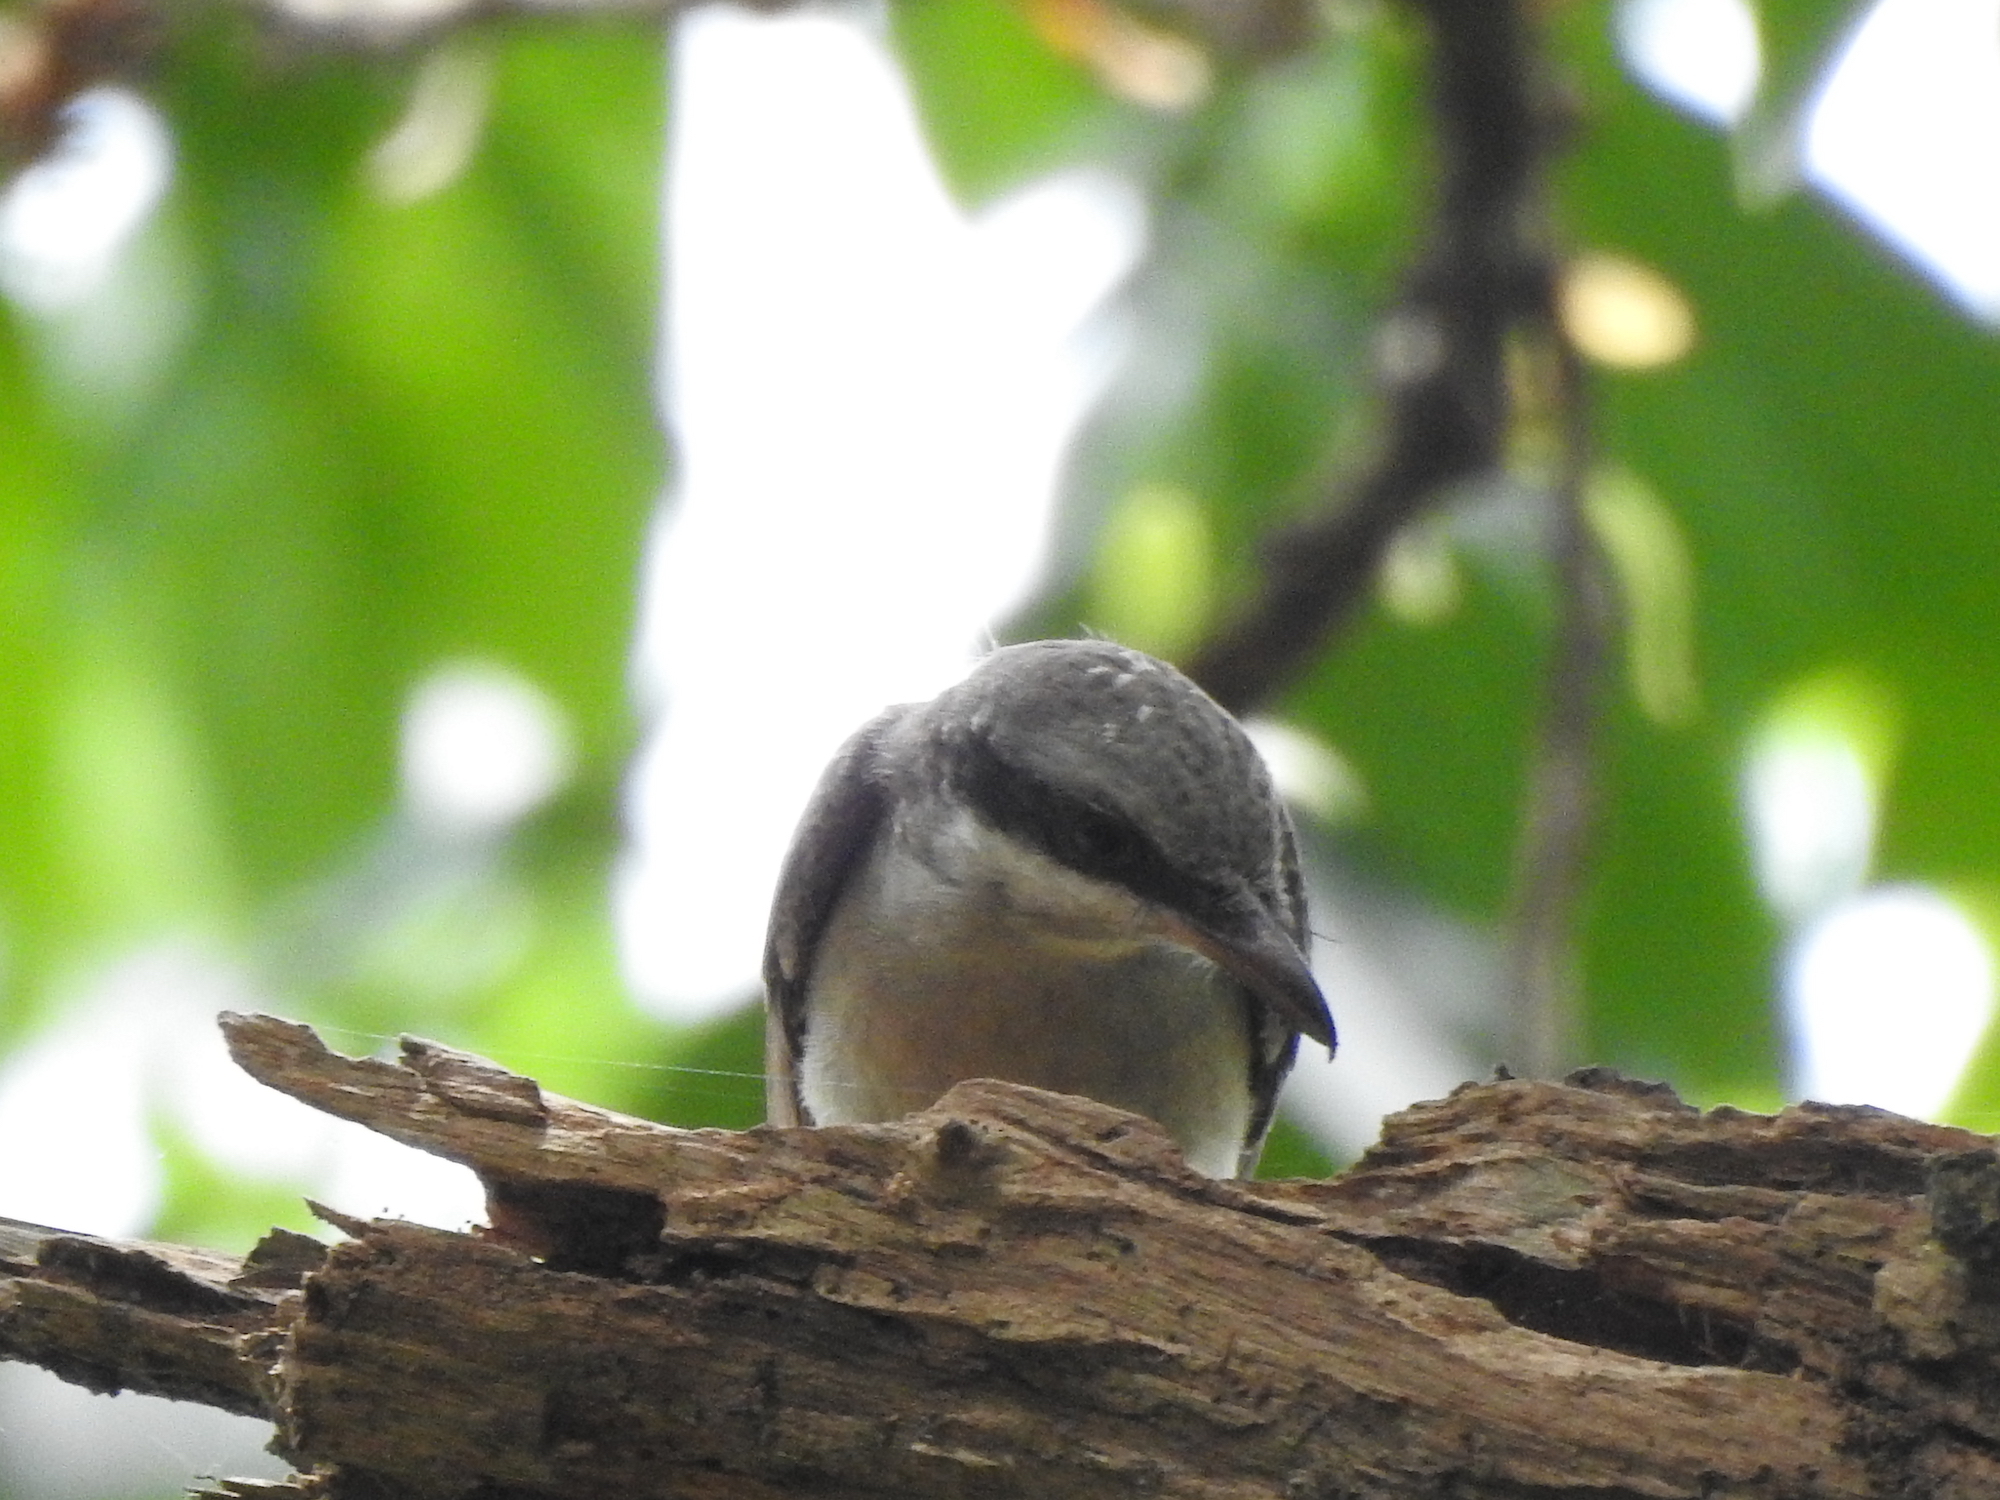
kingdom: Animalia
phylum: Chordata
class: Aves
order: Passeriformes
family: Tephrodornithidae
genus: Tephrodornis
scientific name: Tephrodornis virgatus
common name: Large woodshrike
